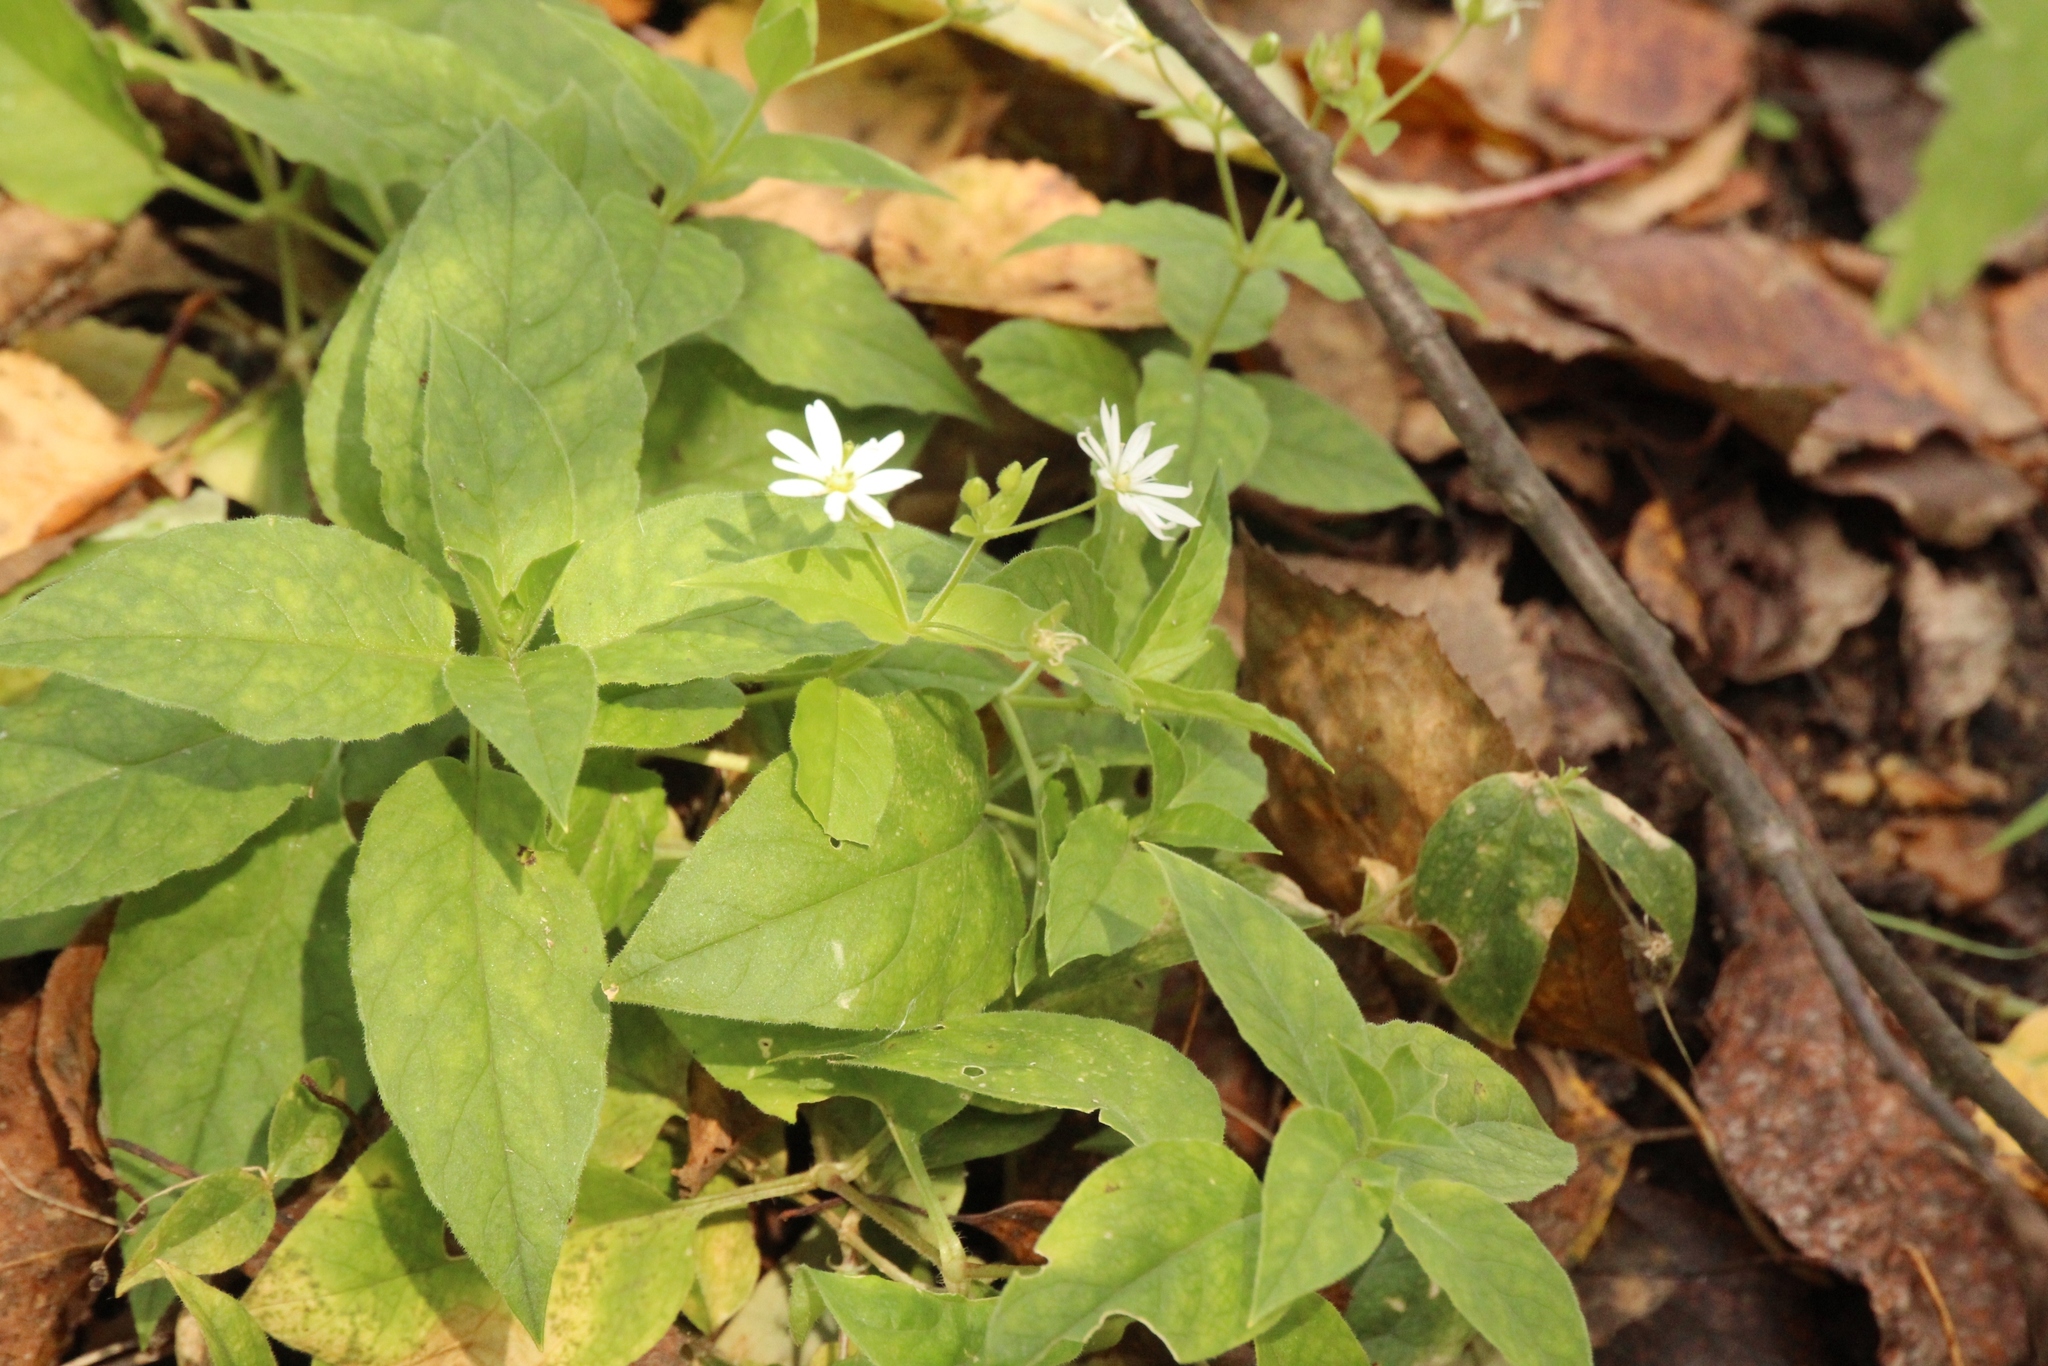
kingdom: Plantae
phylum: Tracheophyta
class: Magnoliopsida
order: Caryophyllales
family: Caryophyllaceae
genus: Stellaria
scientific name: Stellaria bungeana
